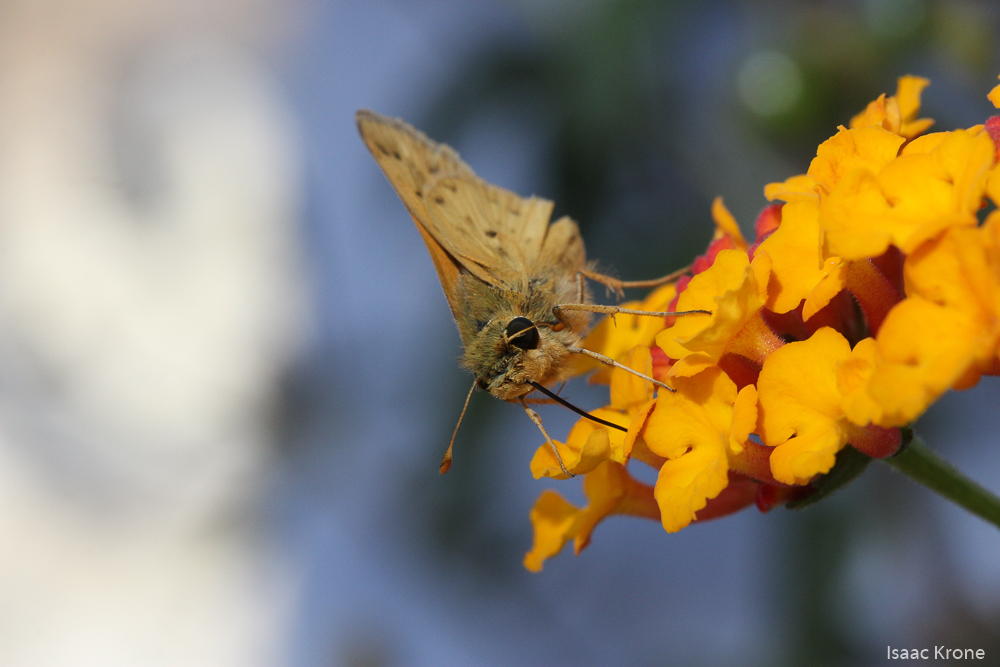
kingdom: Animalia
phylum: Arthropoda
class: Insecta
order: Lepidoptera
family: Hesperiidae
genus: Hylephila
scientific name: Hylephila phyleus
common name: Fiery skipper
